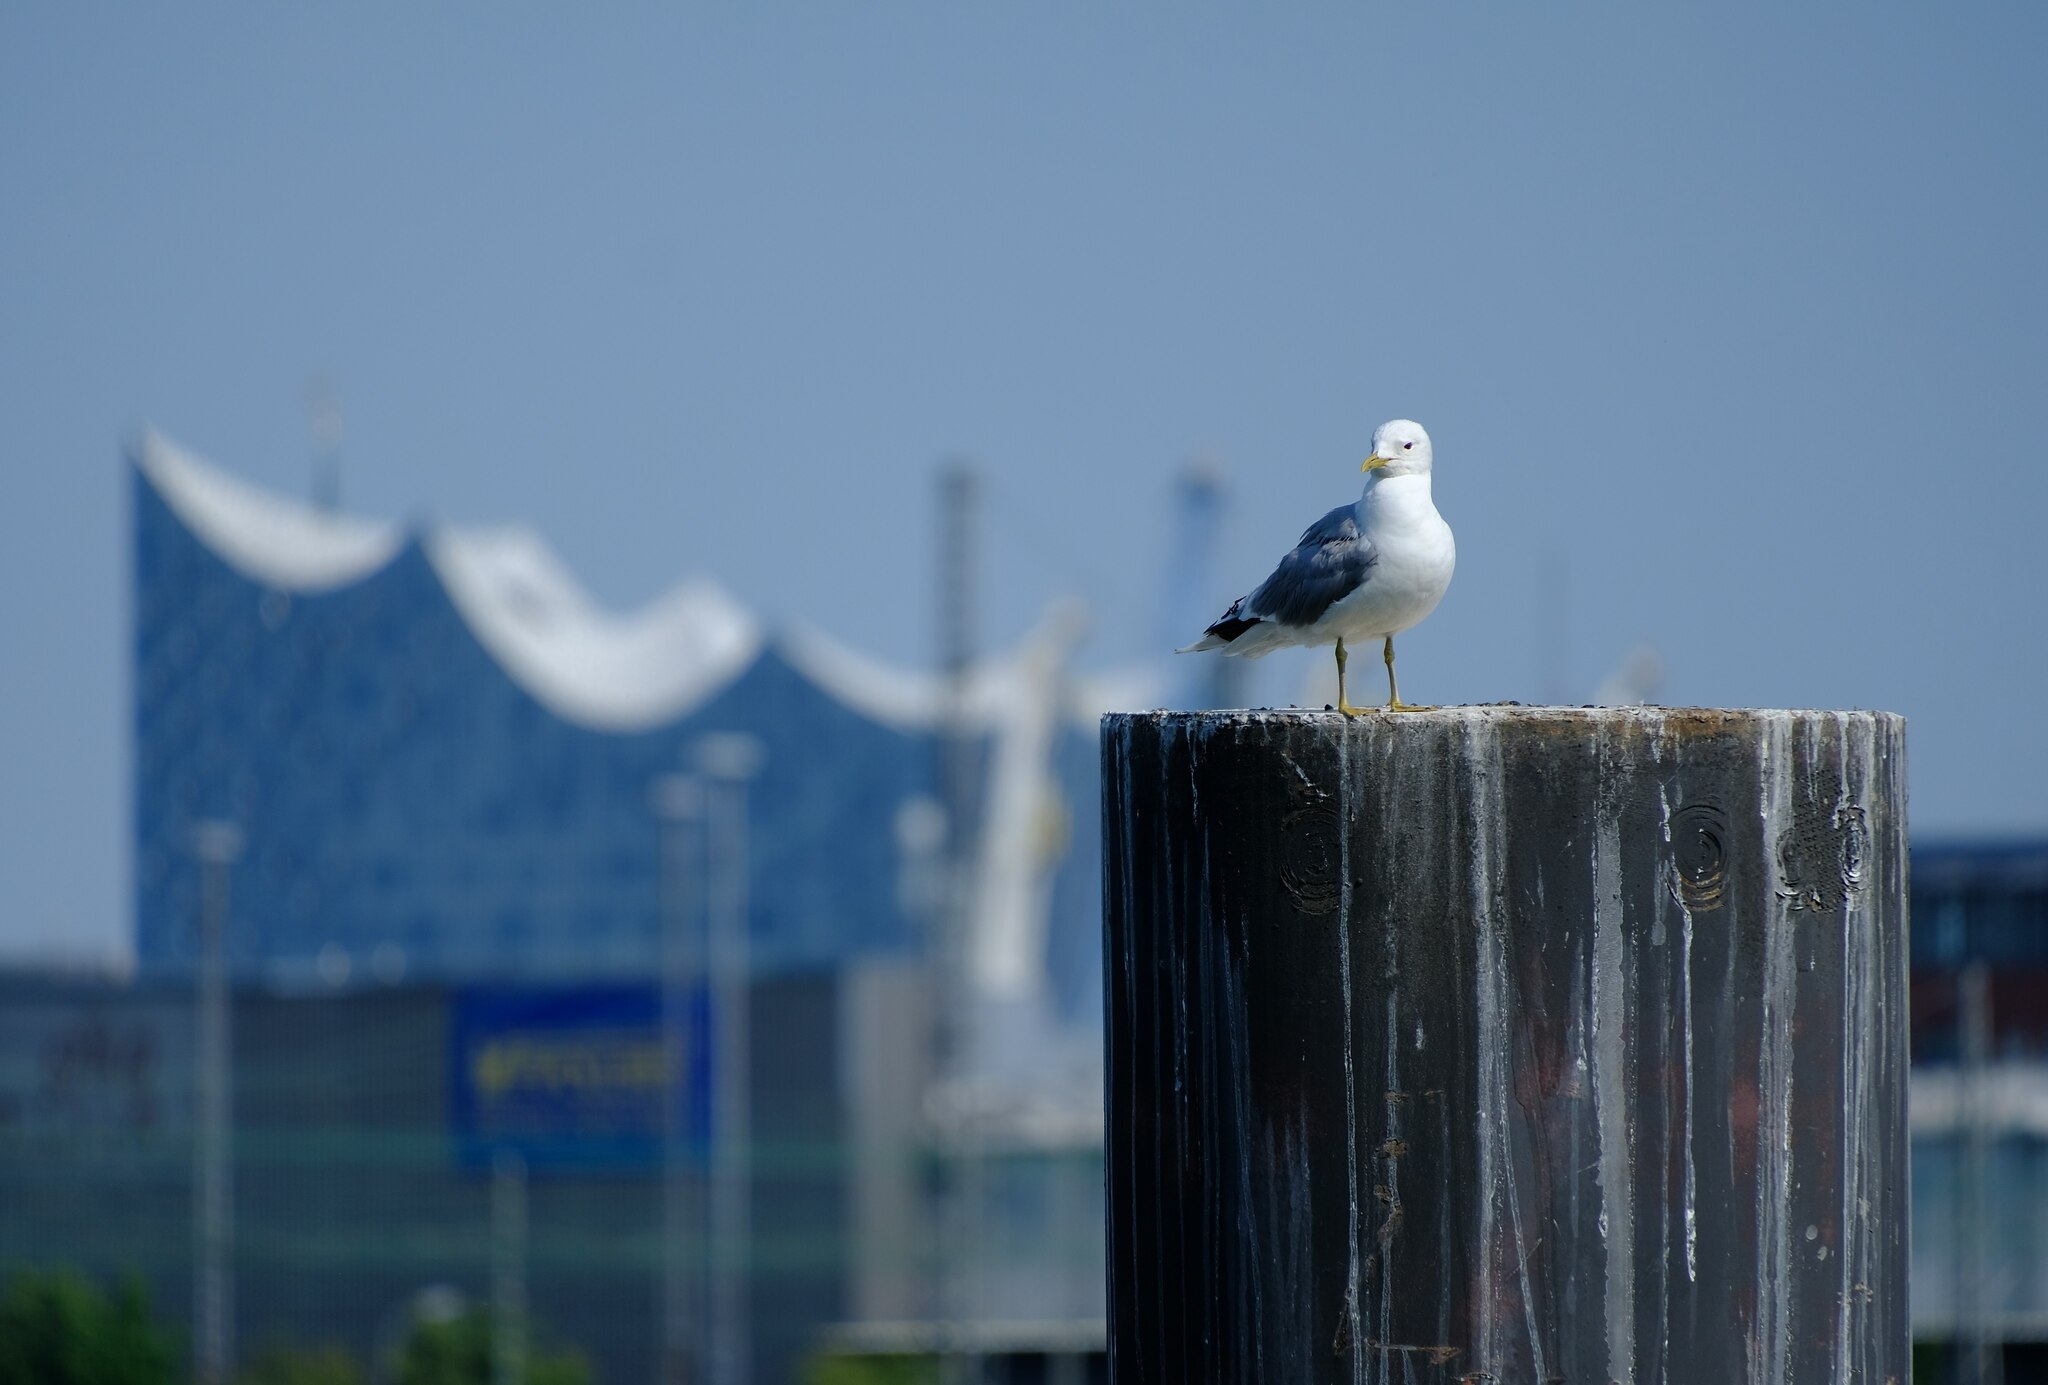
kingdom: Animalia
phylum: Chordata
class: Aves
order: Charadriiformes
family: Laridae
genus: Larus
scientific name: Larus canus
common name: Mew gull
